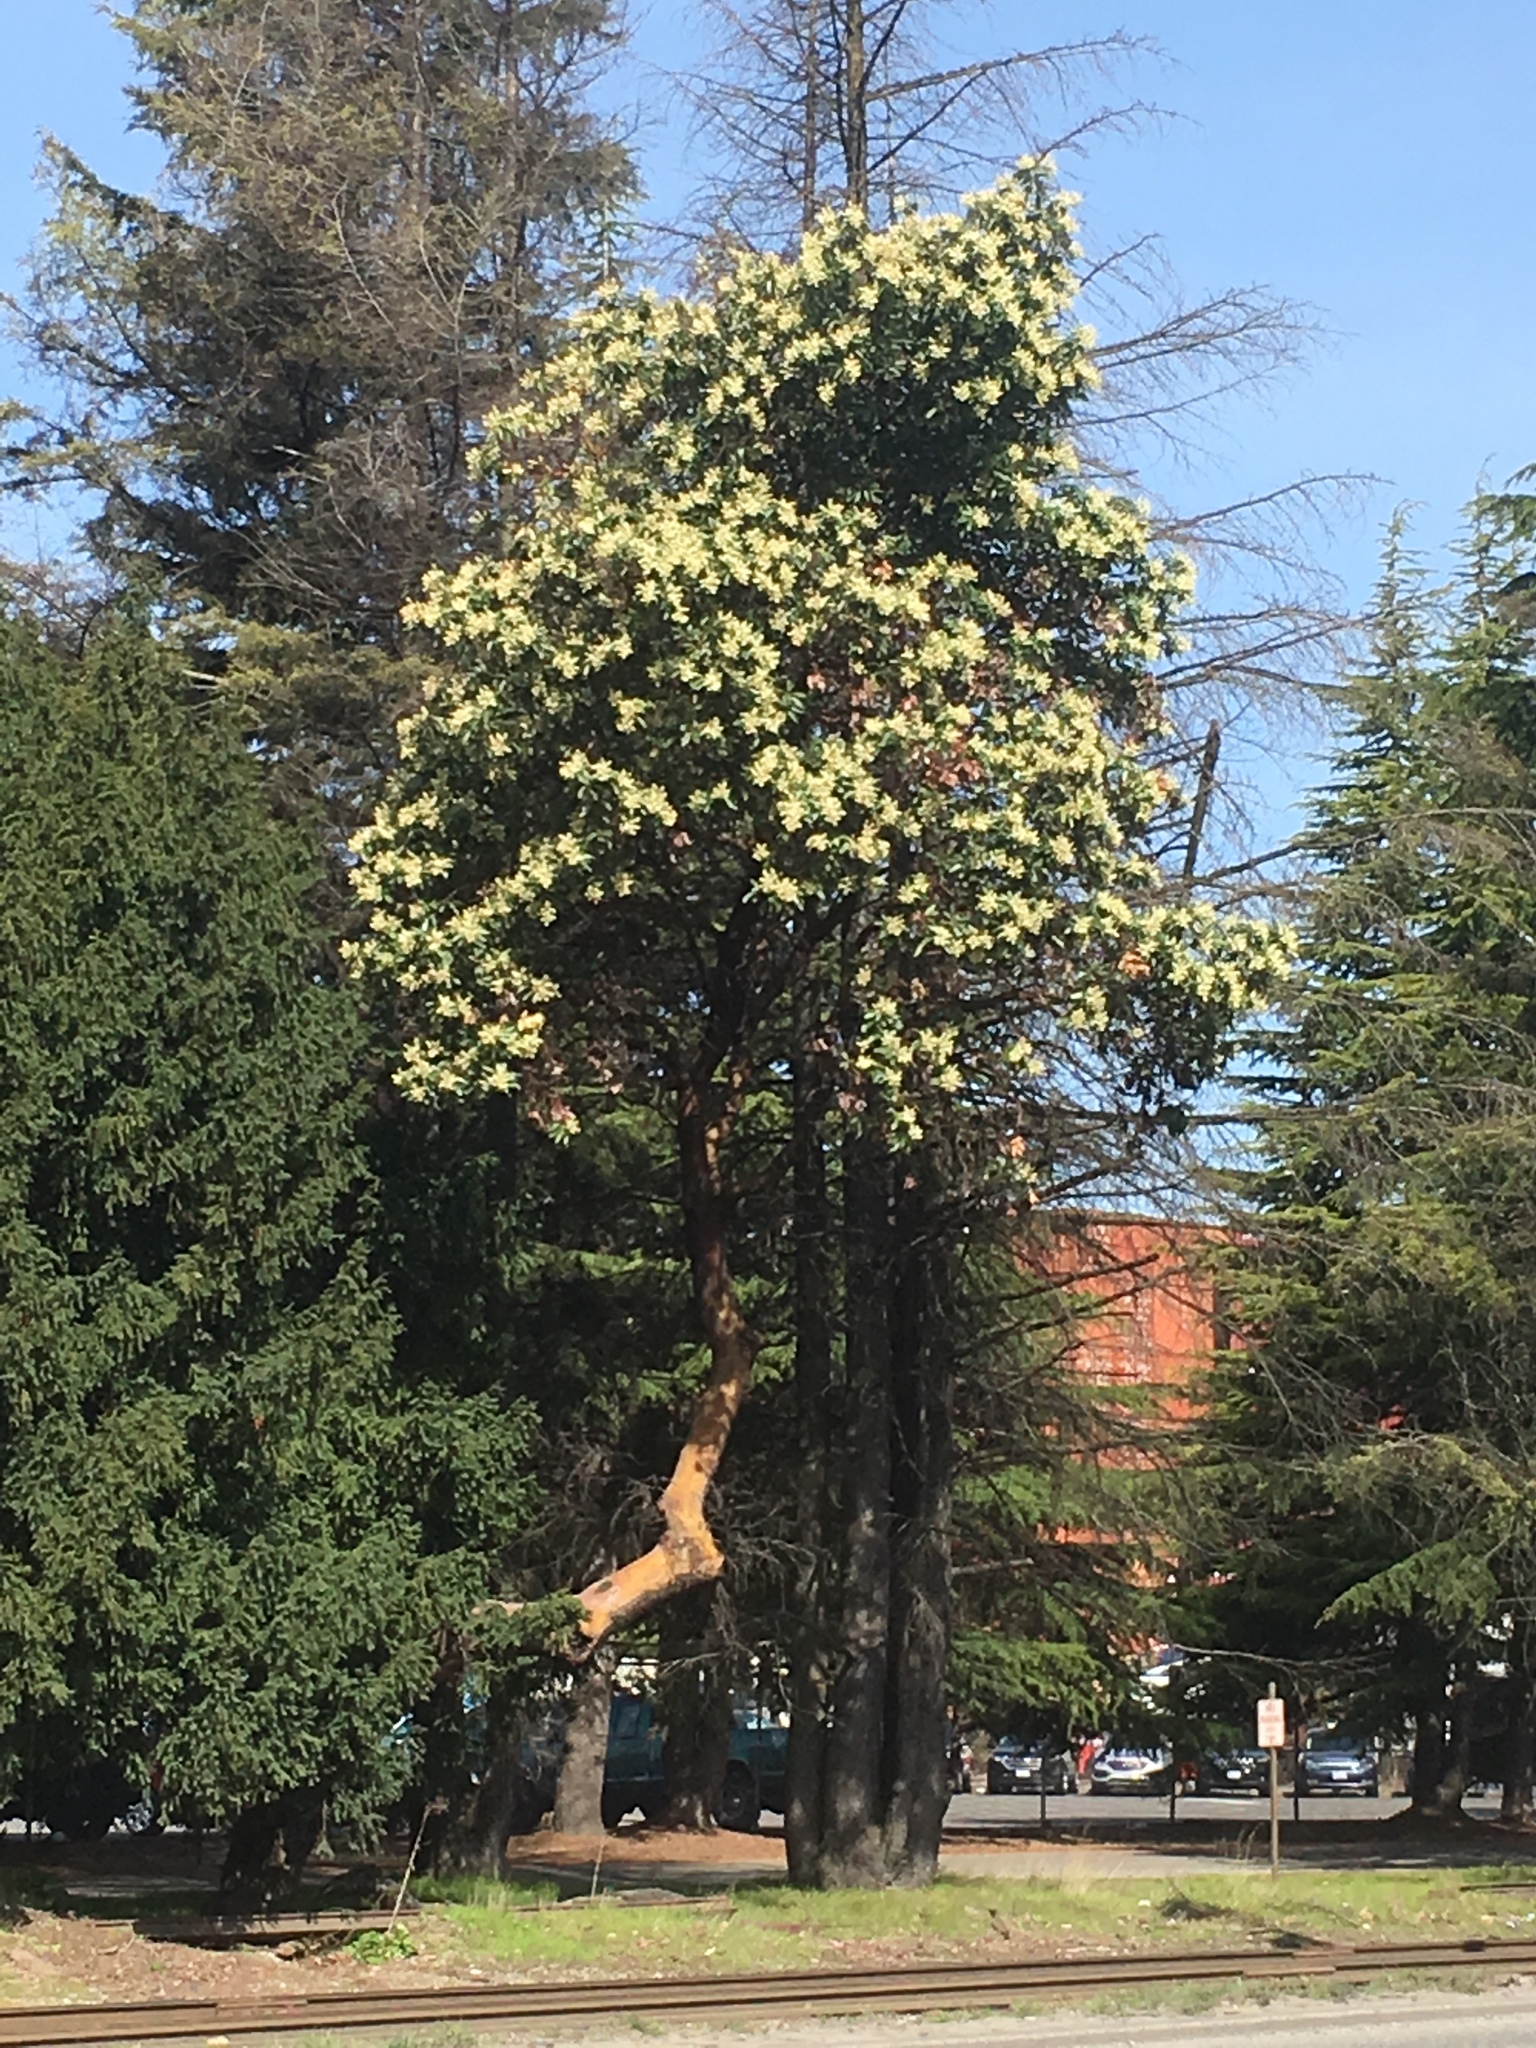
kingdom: Plantae
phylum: Tracheophyta
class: Magnoliopsida
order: Ericales
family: Ericaceae
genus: Arbutus
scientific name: Arbutus menziesii
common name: Pacific madrone
